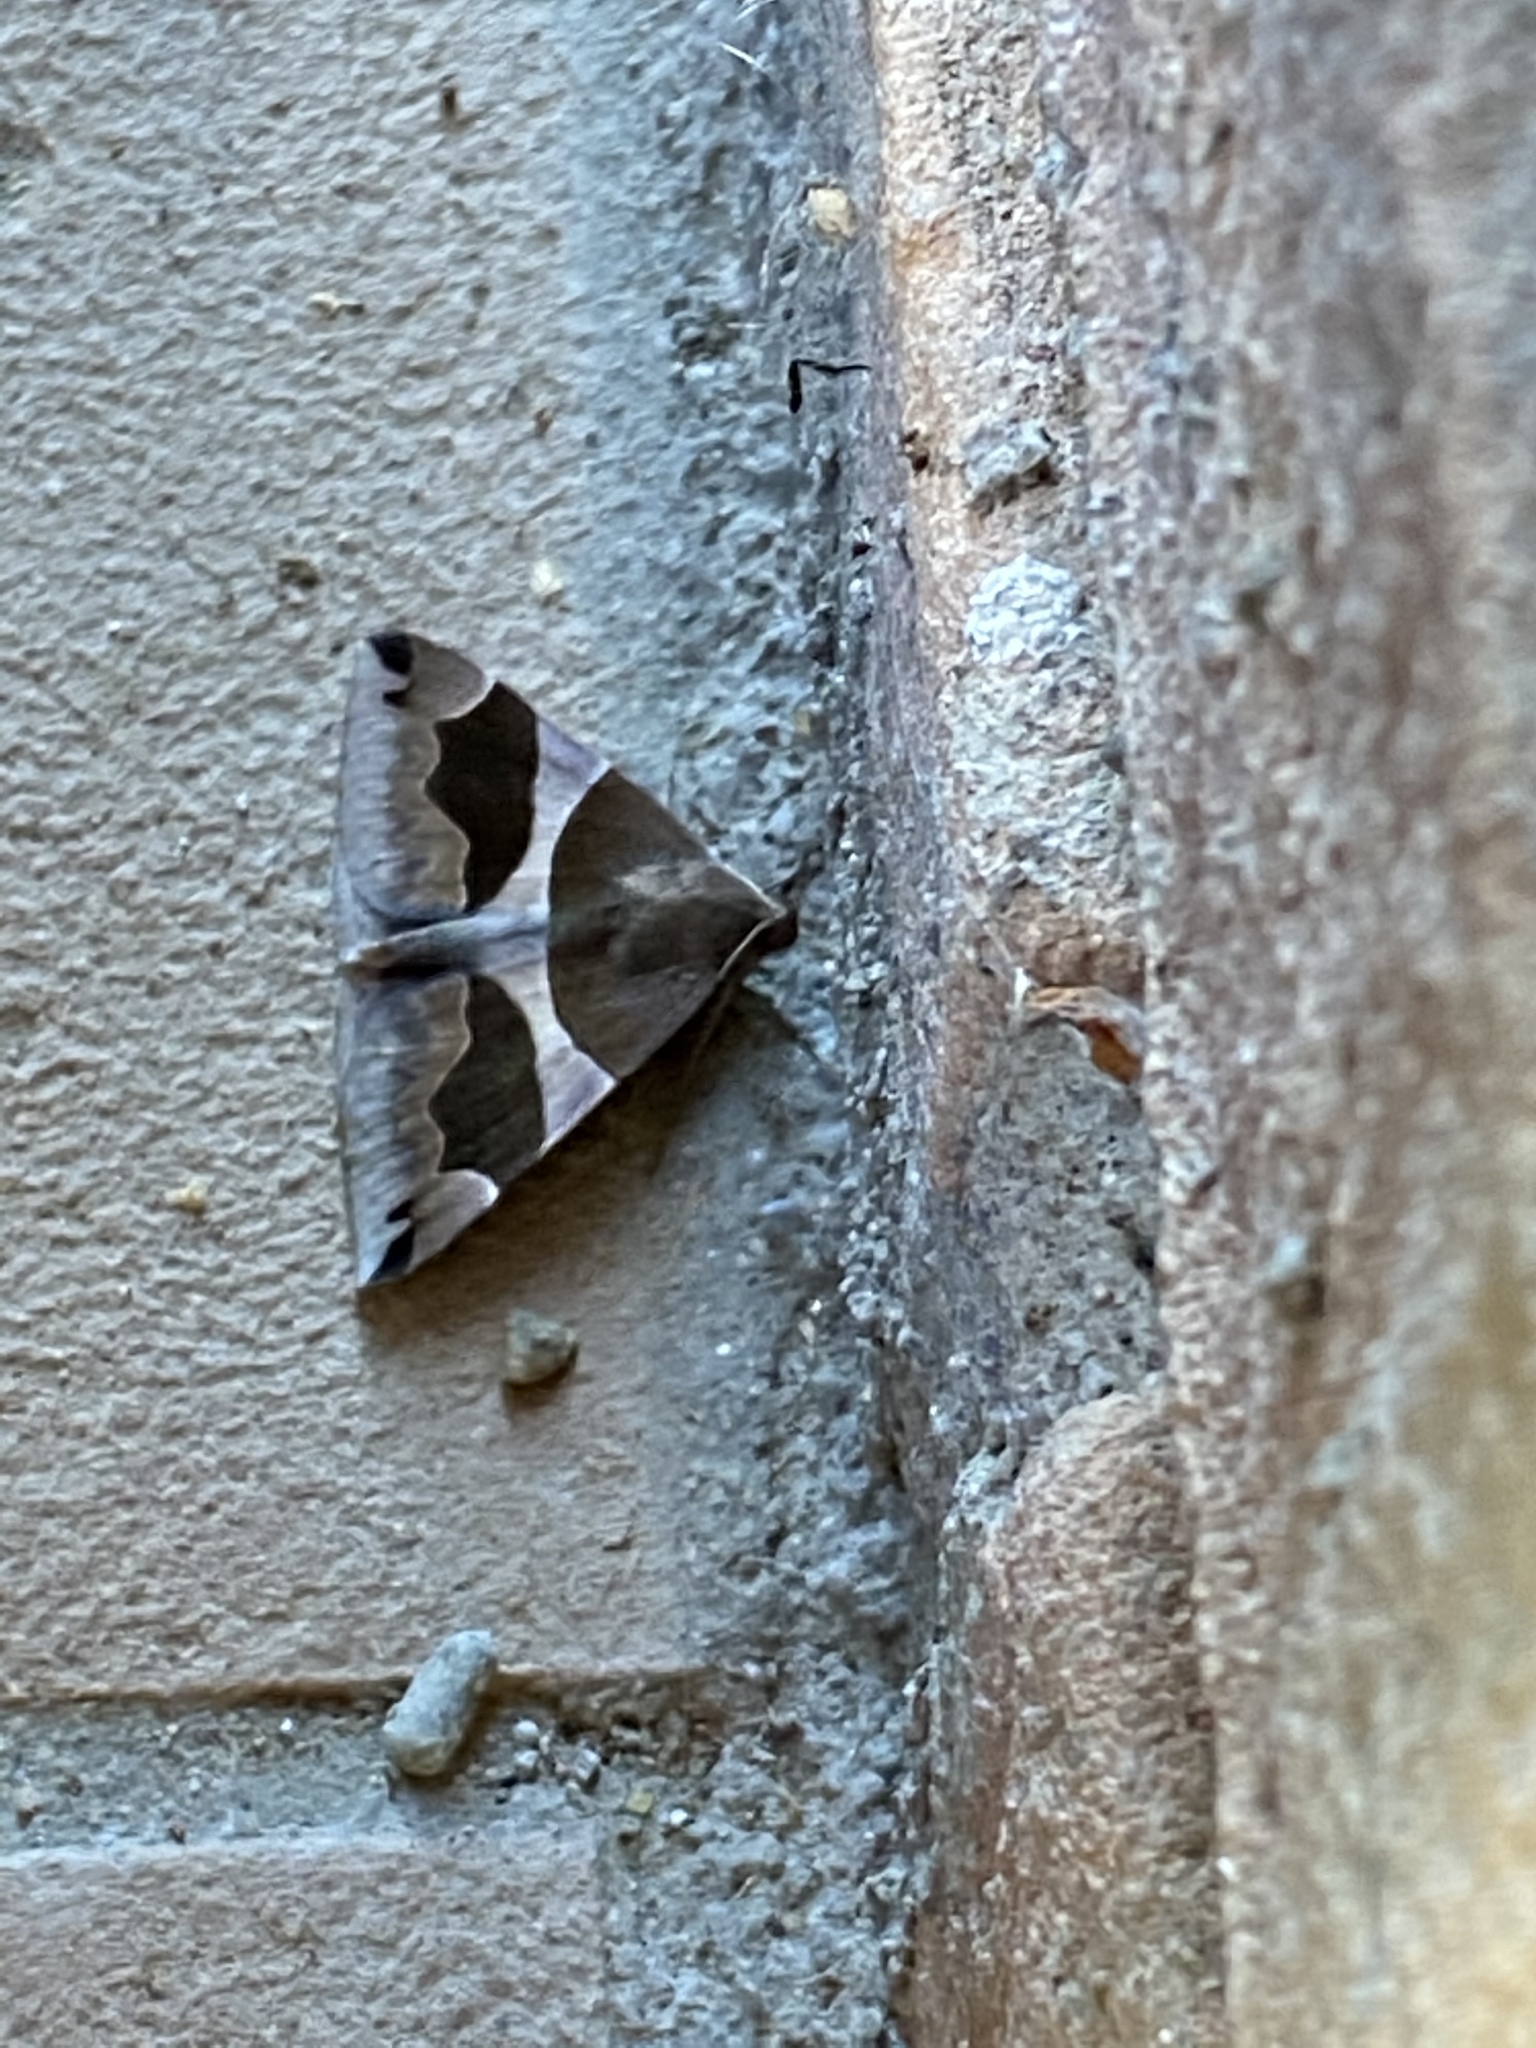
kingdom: Animalia
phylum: Arthropoda
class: Insecta
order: Lepidoptera
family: Erebidae
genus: Dysgonia
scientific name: Dysgonia algira
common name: Passenger
